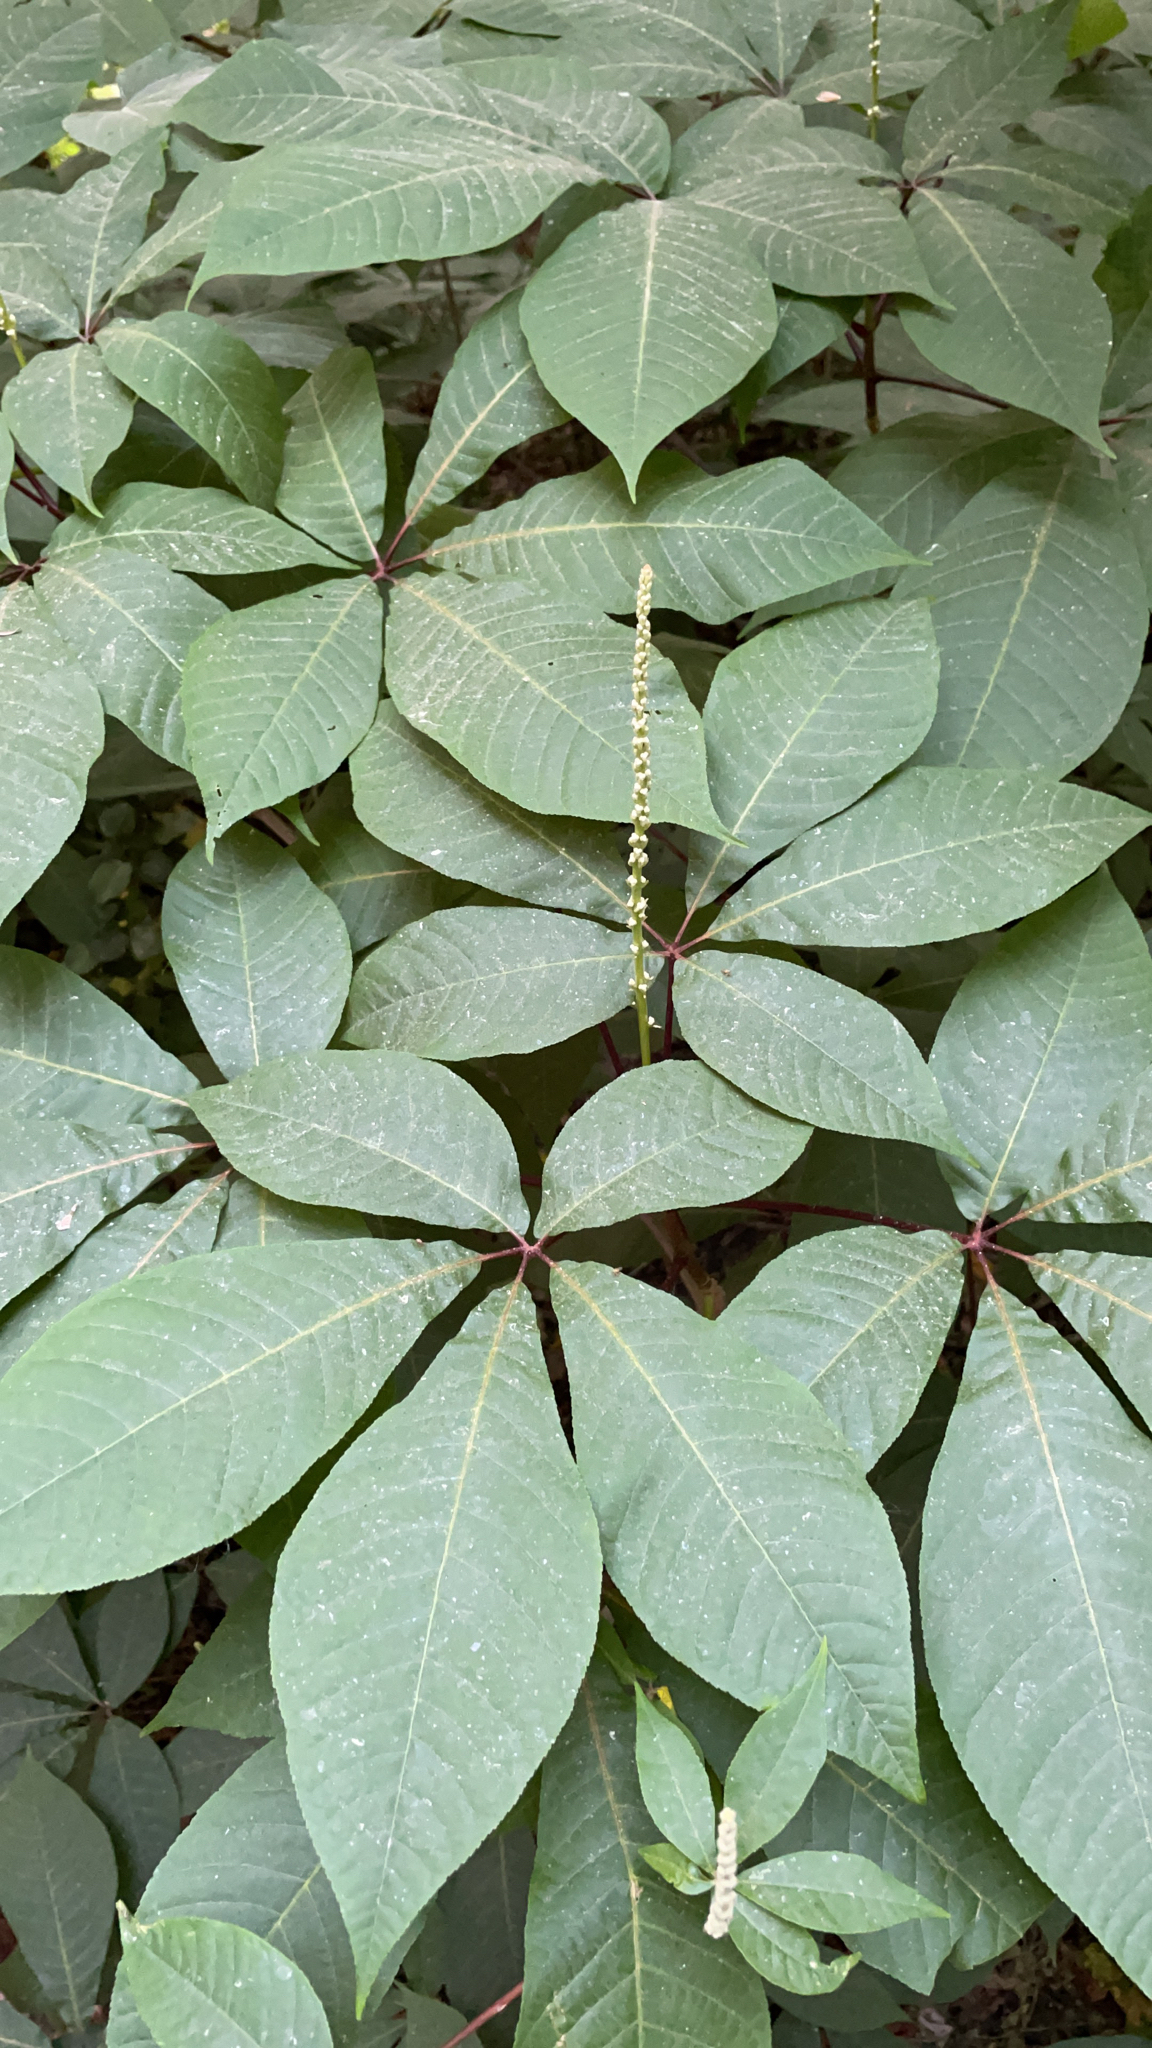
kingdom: Plantae
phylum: Tracheophyta
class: Magnoliopsida
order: Sapindales
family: Sapindaceae
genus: Aesculus
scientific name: Aesculus parviflora
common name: Bottlebrush buckeye
